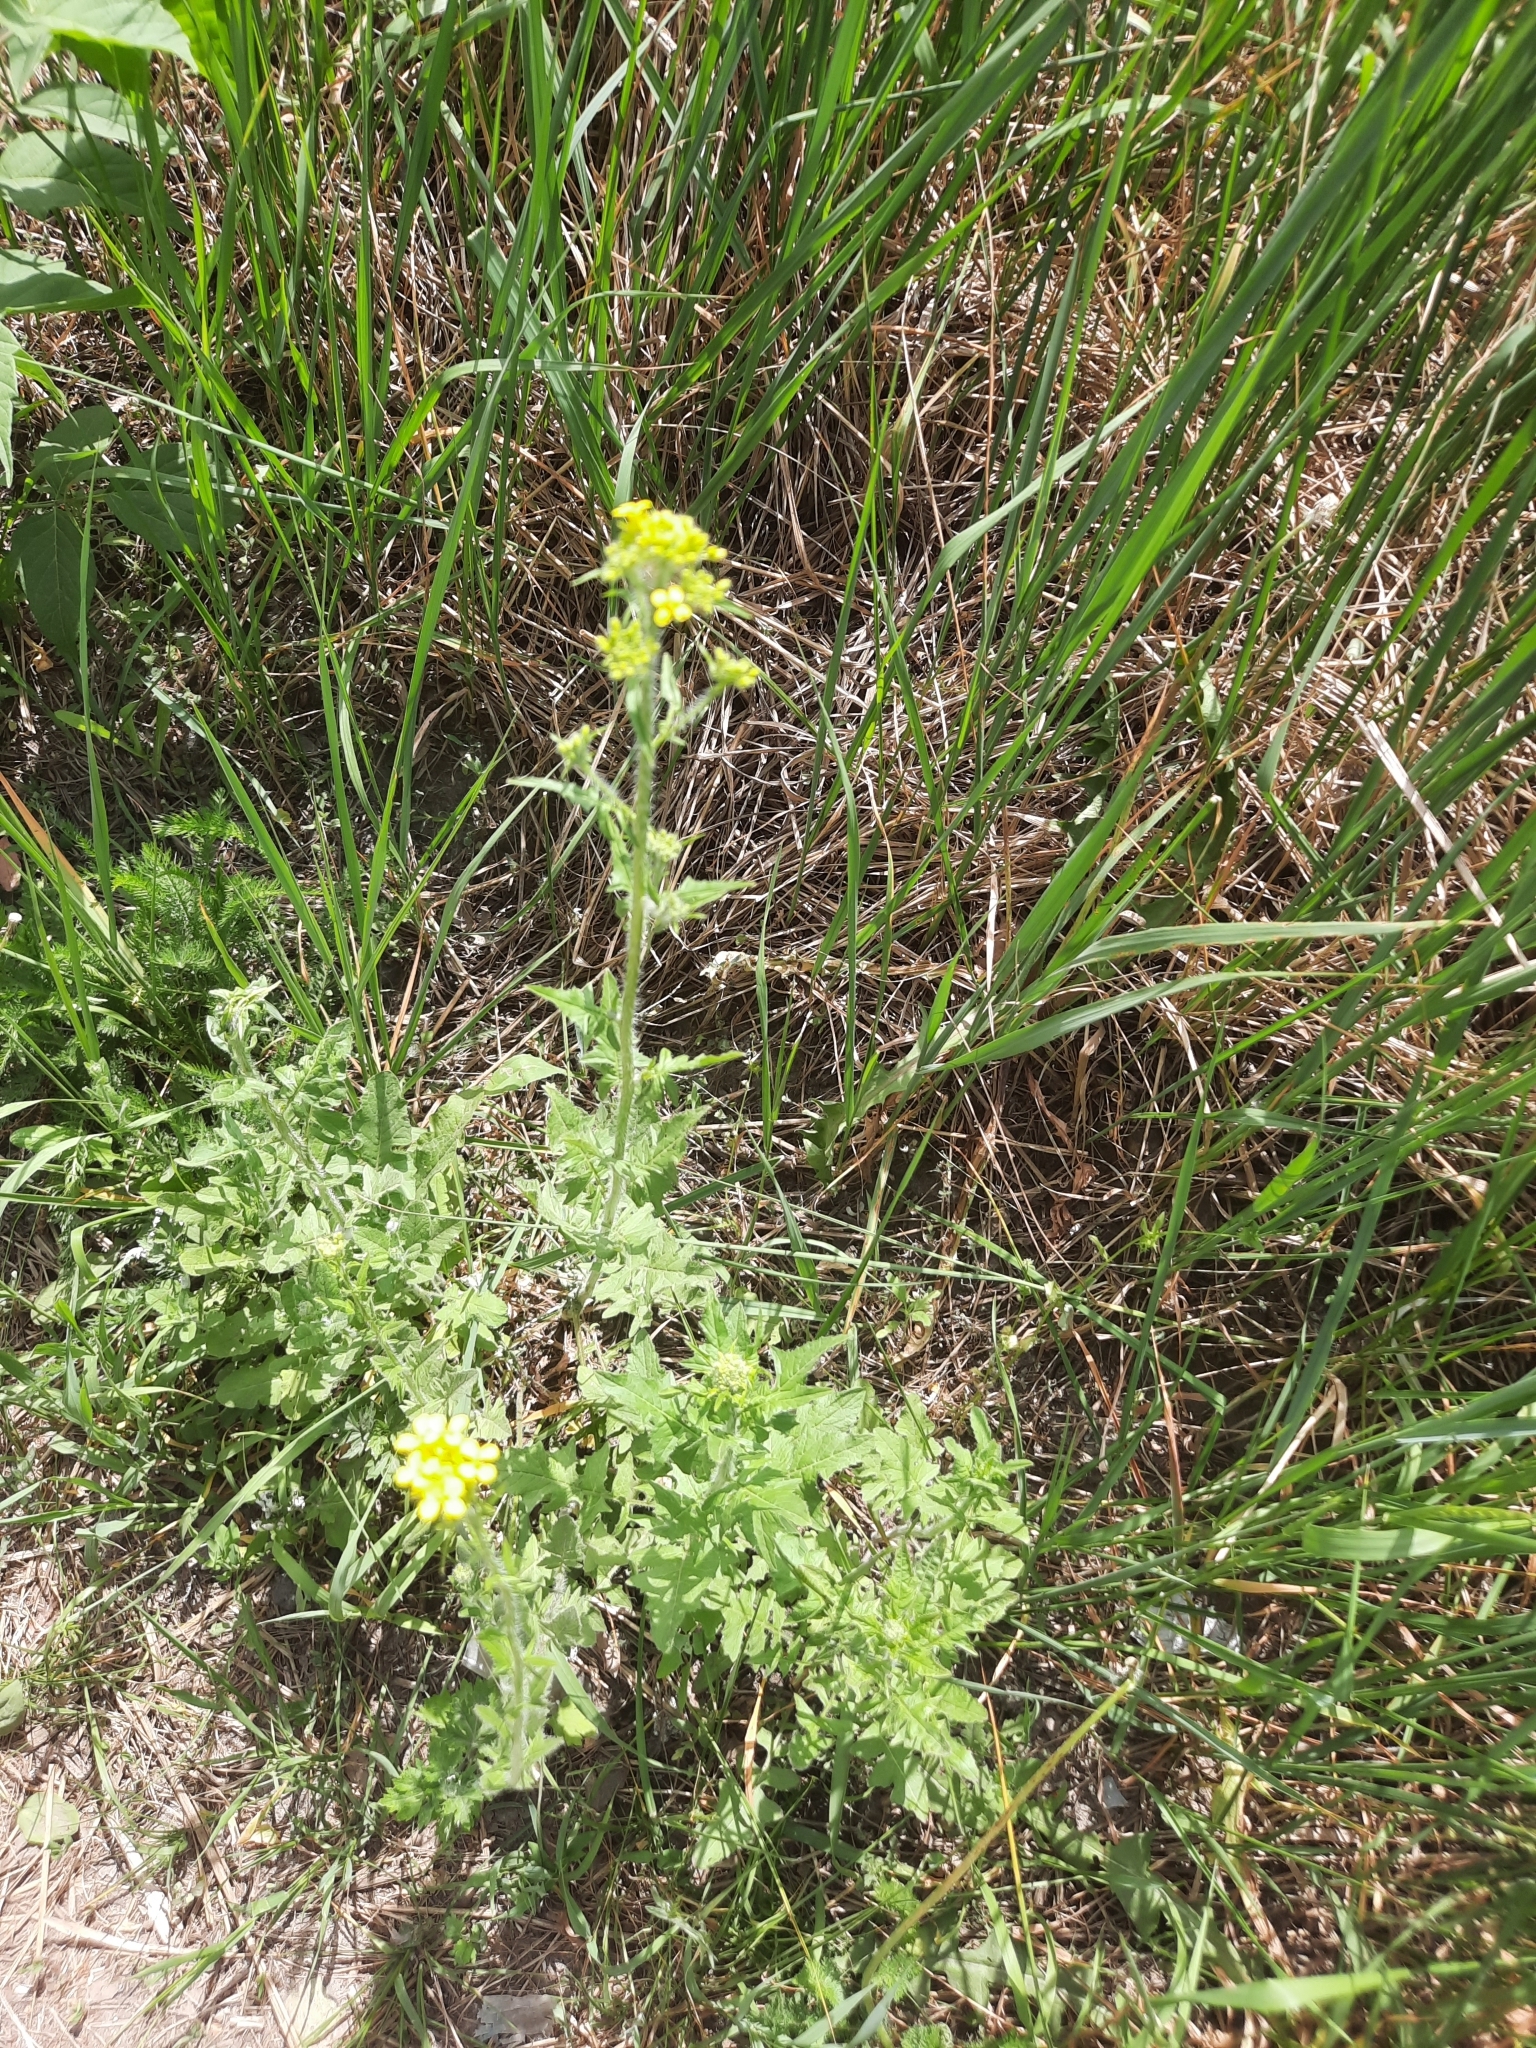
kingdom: Plantae
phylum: Tracheophyta
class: Magnoliopsida
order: Brassicales
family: Brassicaceae
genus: Sisymbrium
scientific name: Sisymbrium loeselii
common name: False london-rocket
